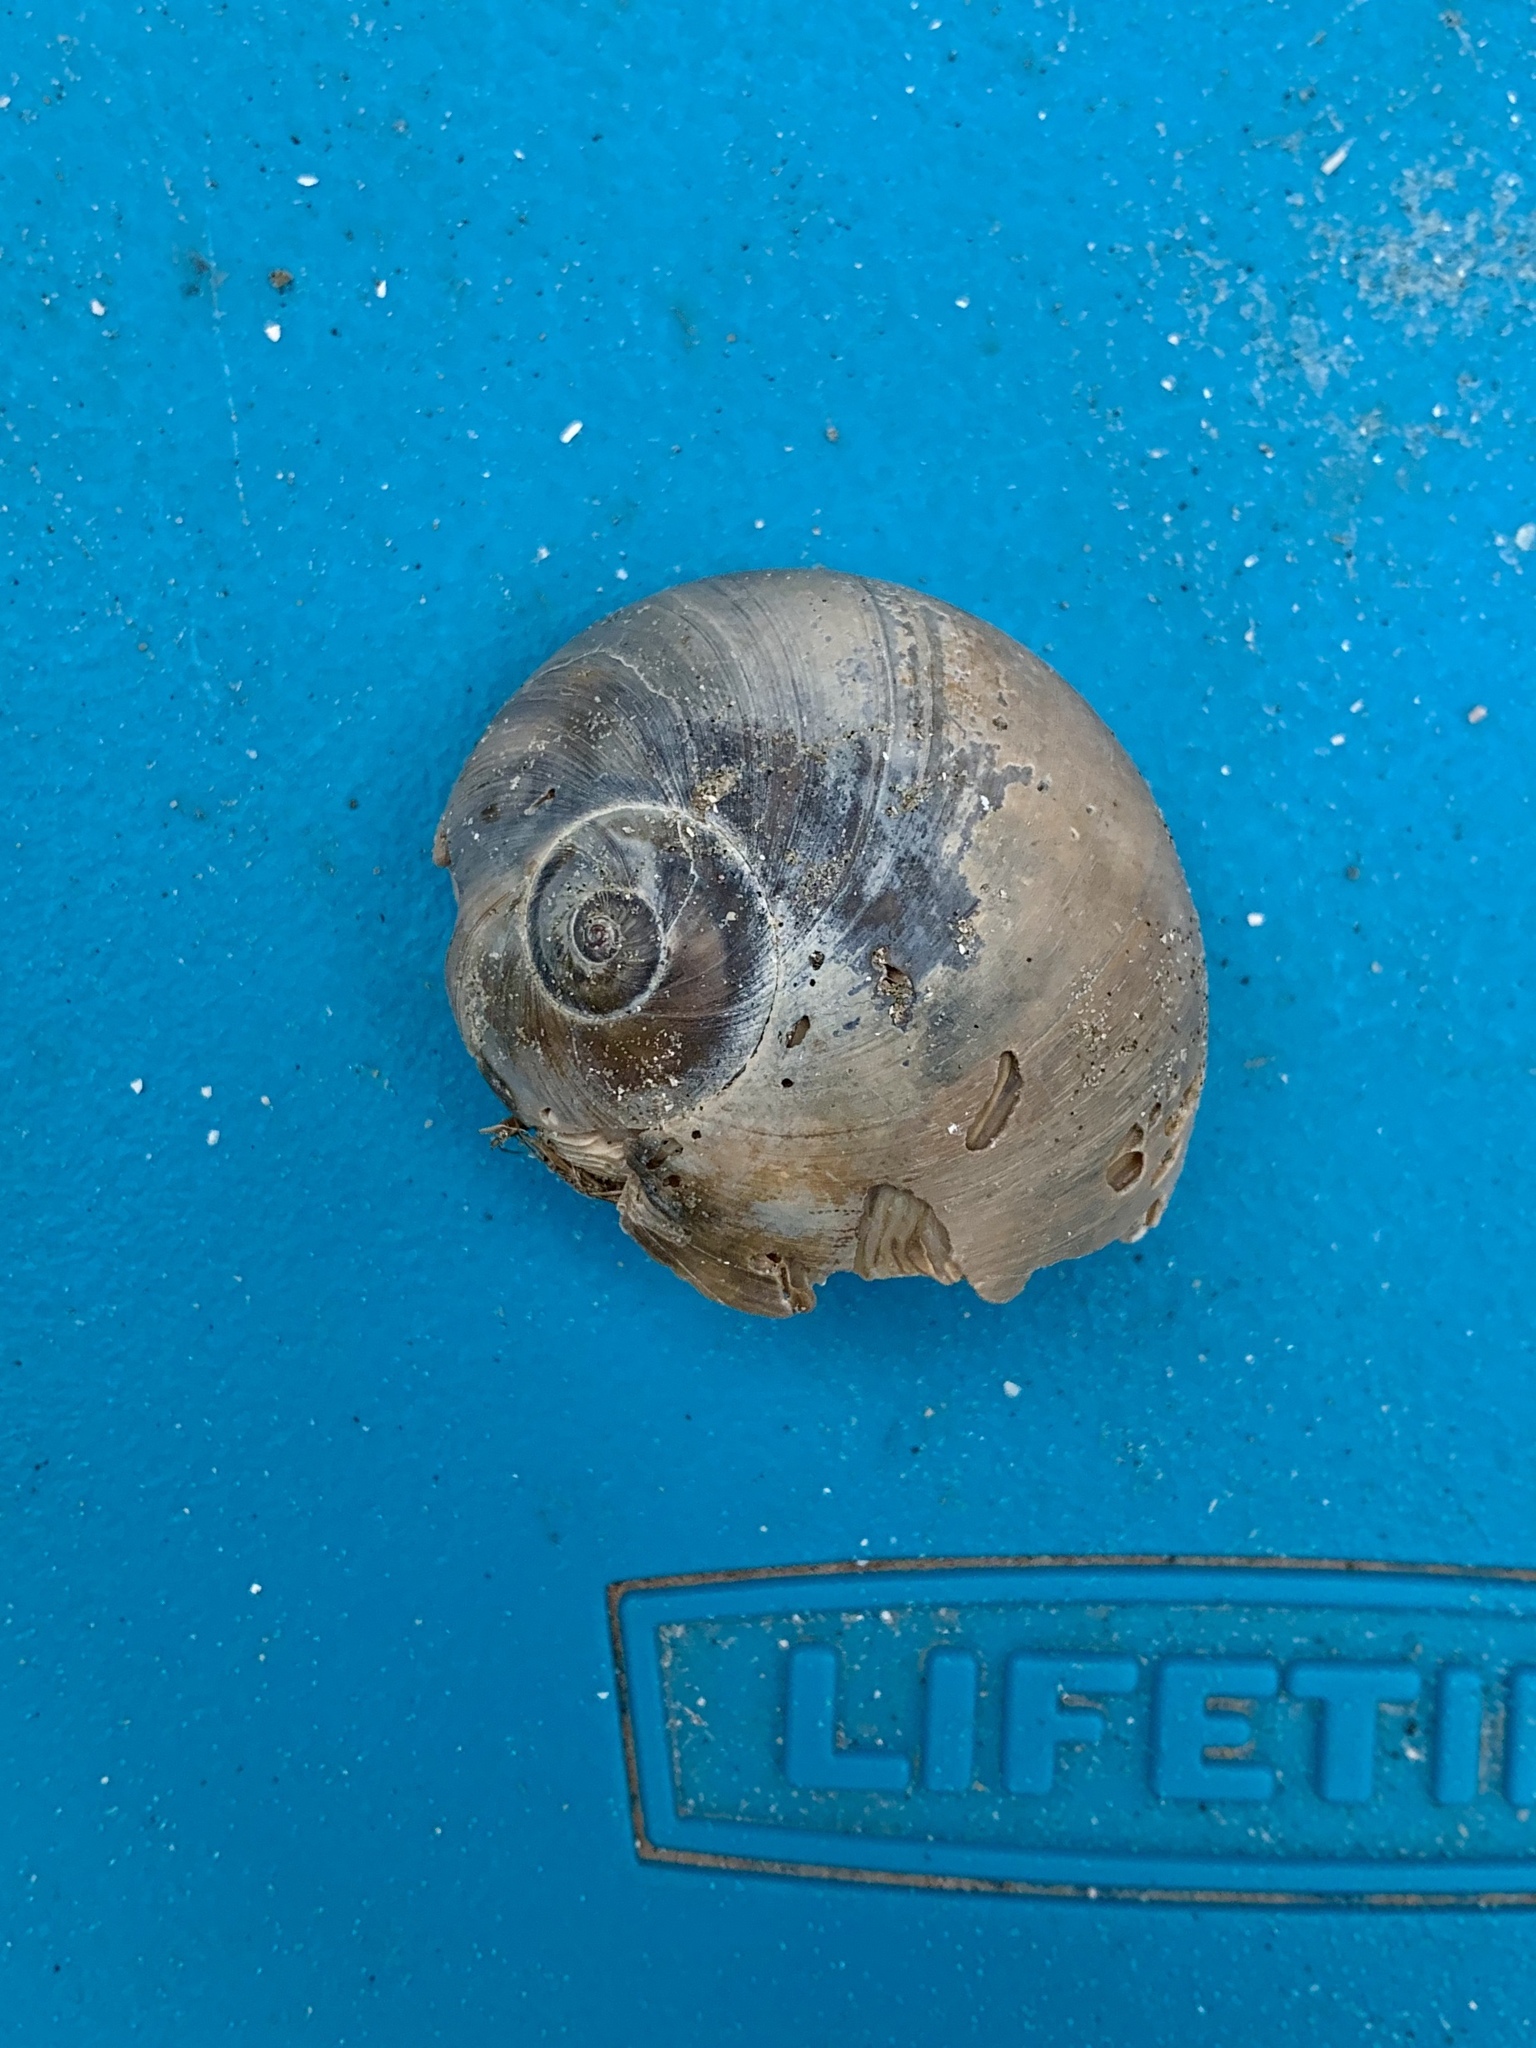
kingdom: Animalia
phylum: Mollusca
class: Gastropoda
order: Littorinimorpha
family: Naticidae
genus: Neverita
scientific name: Neverita duplicata
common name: Lobed moonsnail
